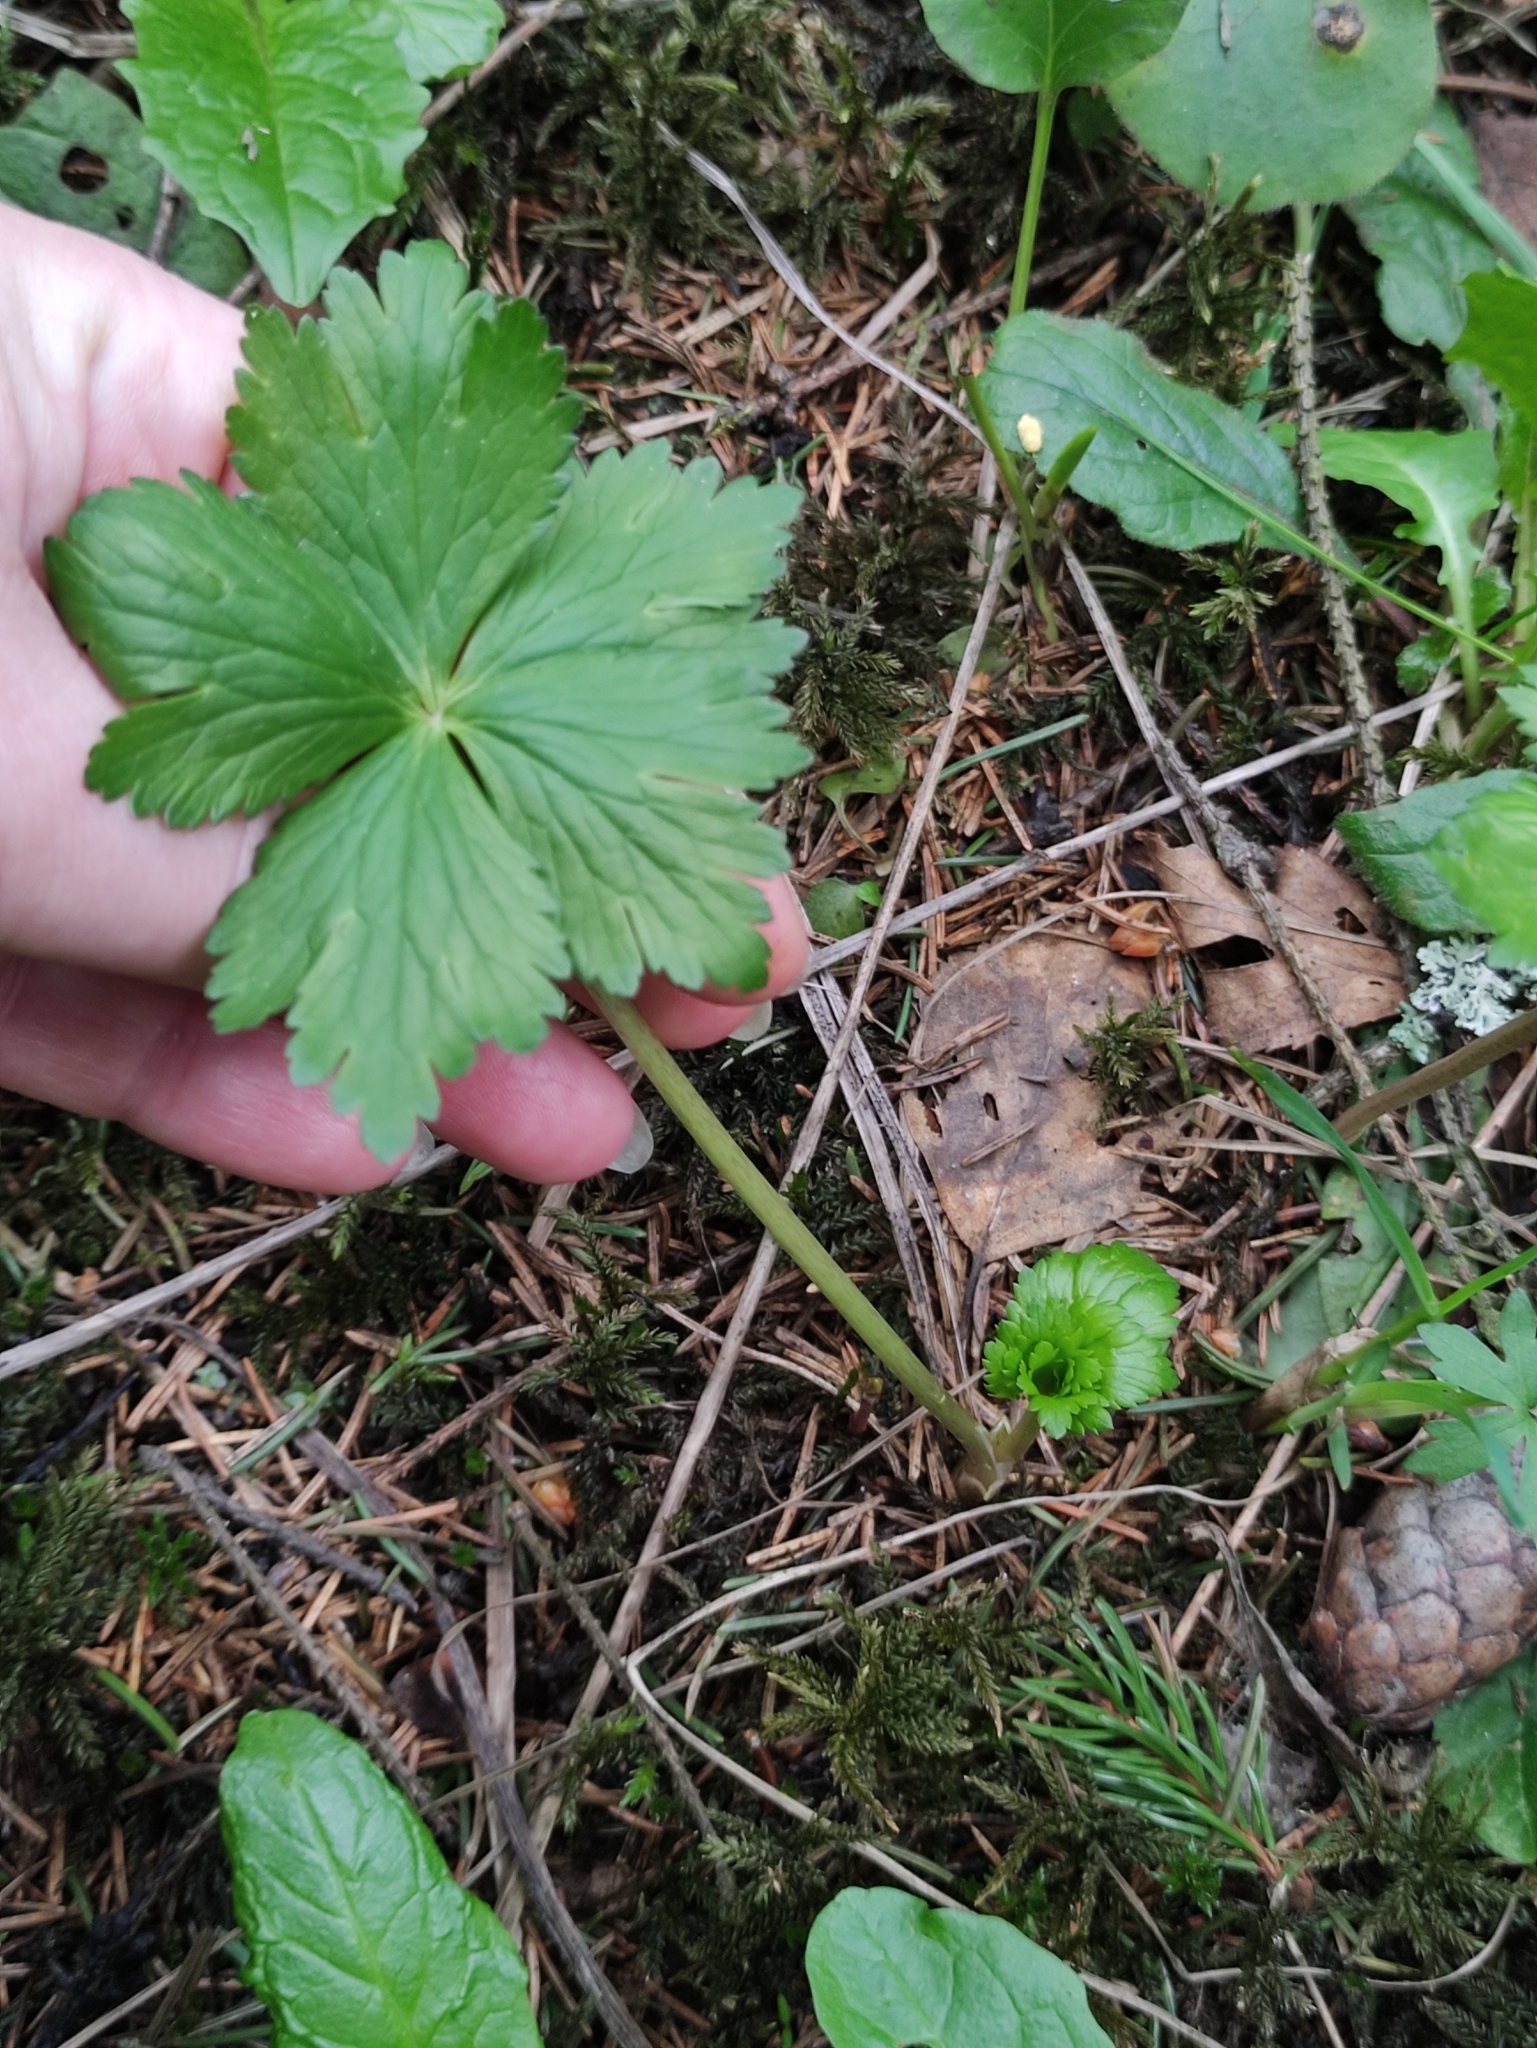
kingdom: Plantae
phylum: Tracheophyta
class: Magnoliopsida
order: Ranunculales
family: Ranunculaceae
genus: Trollius
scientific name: Trollius europaeus
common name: European globeflower
